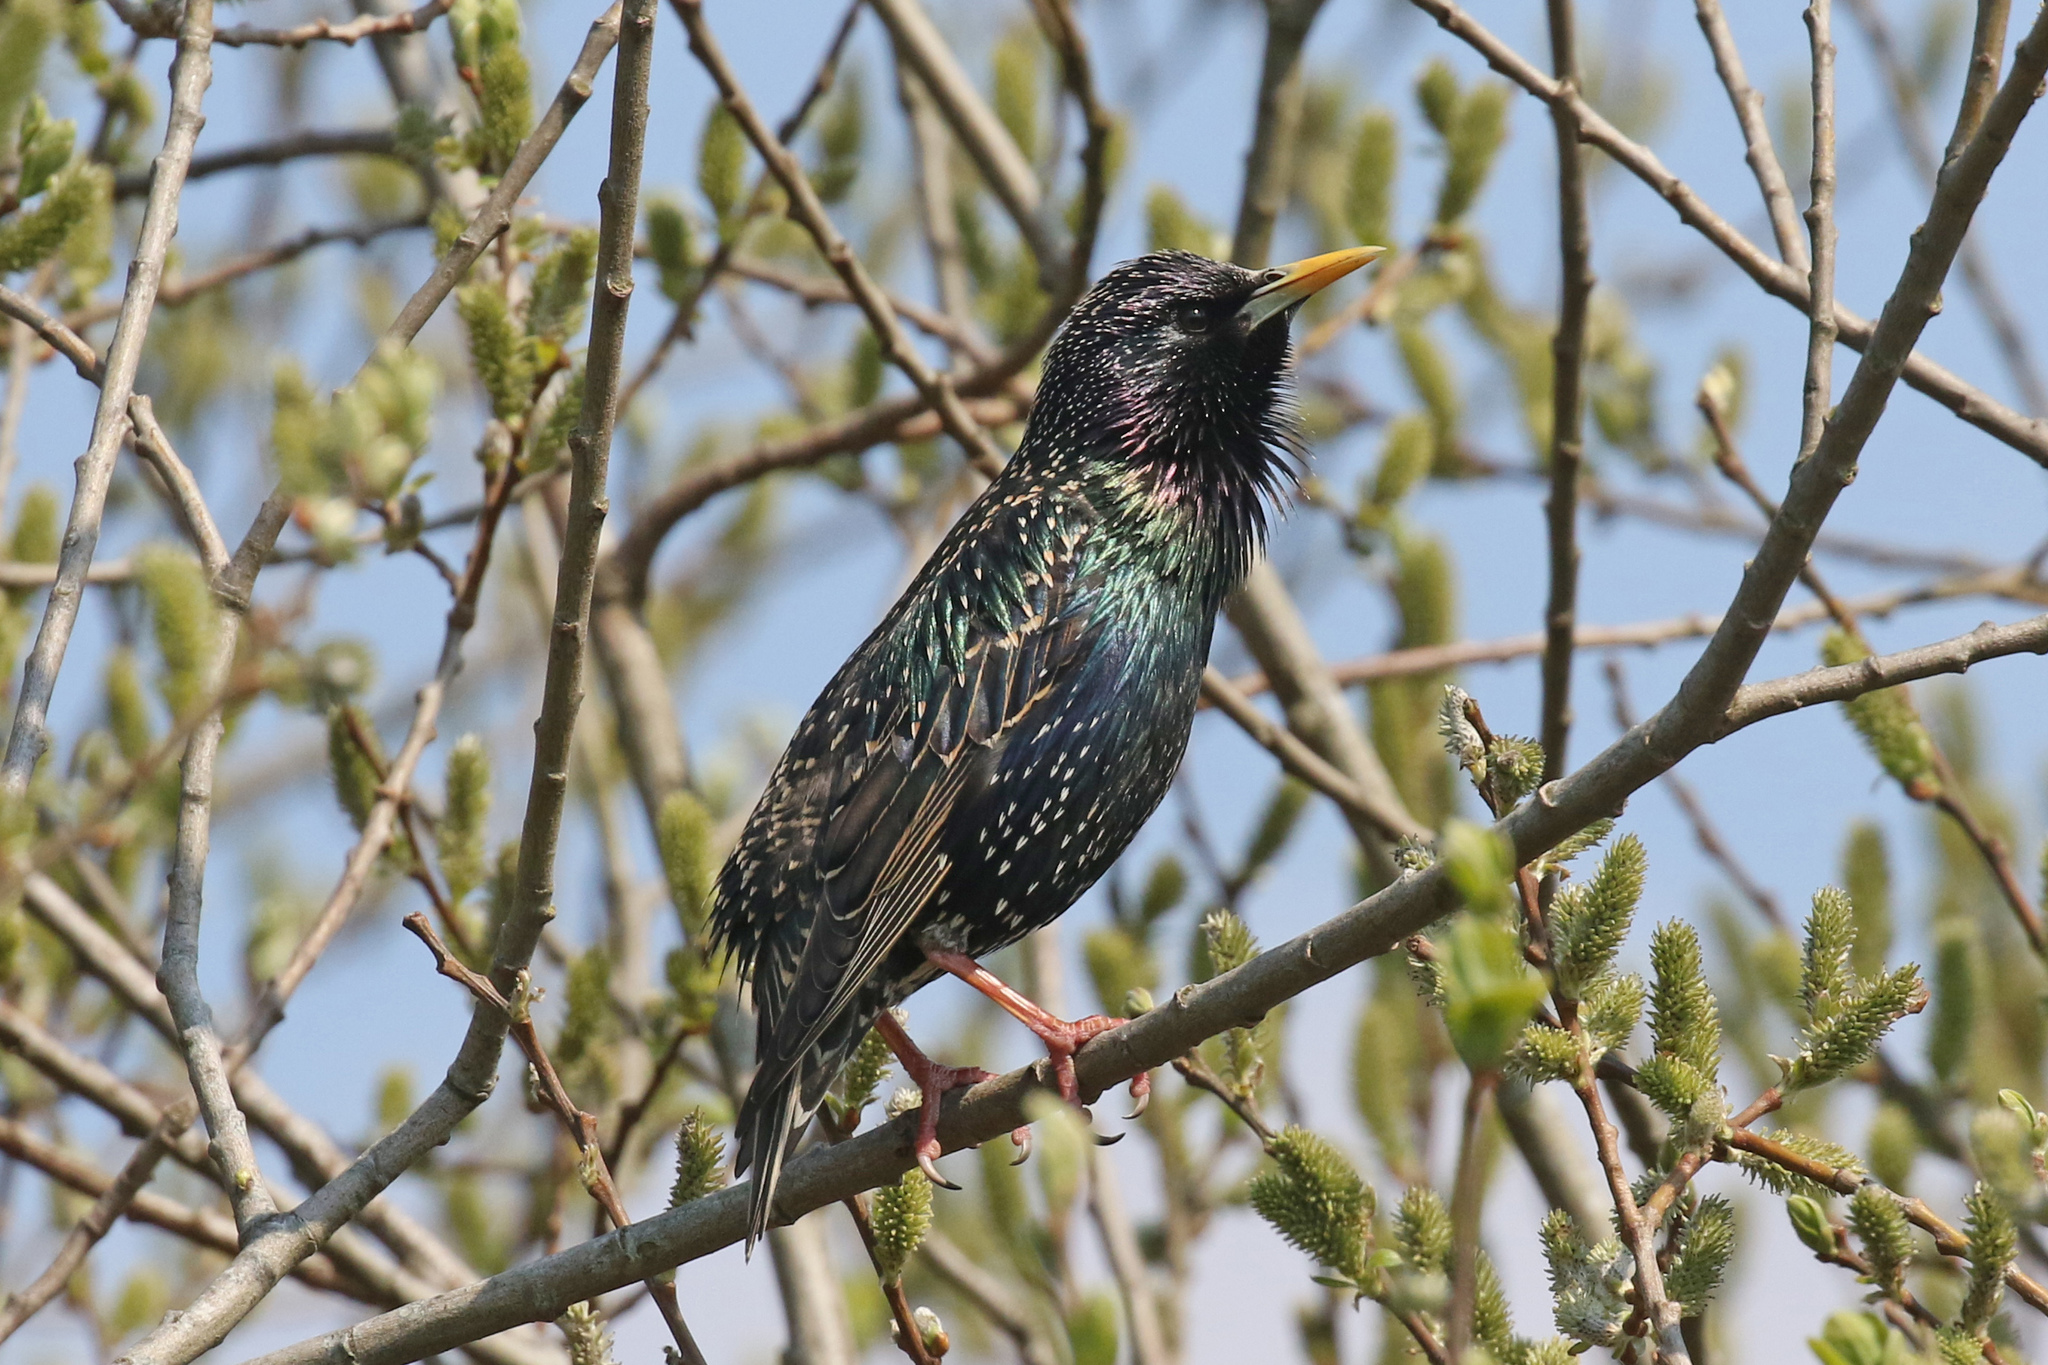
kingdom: Animalia
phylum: Chordata
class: Aves
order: Passeriformes
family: Sturnidae
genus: Sturnus
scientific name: Sturnus vulgaris
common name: Common starling
